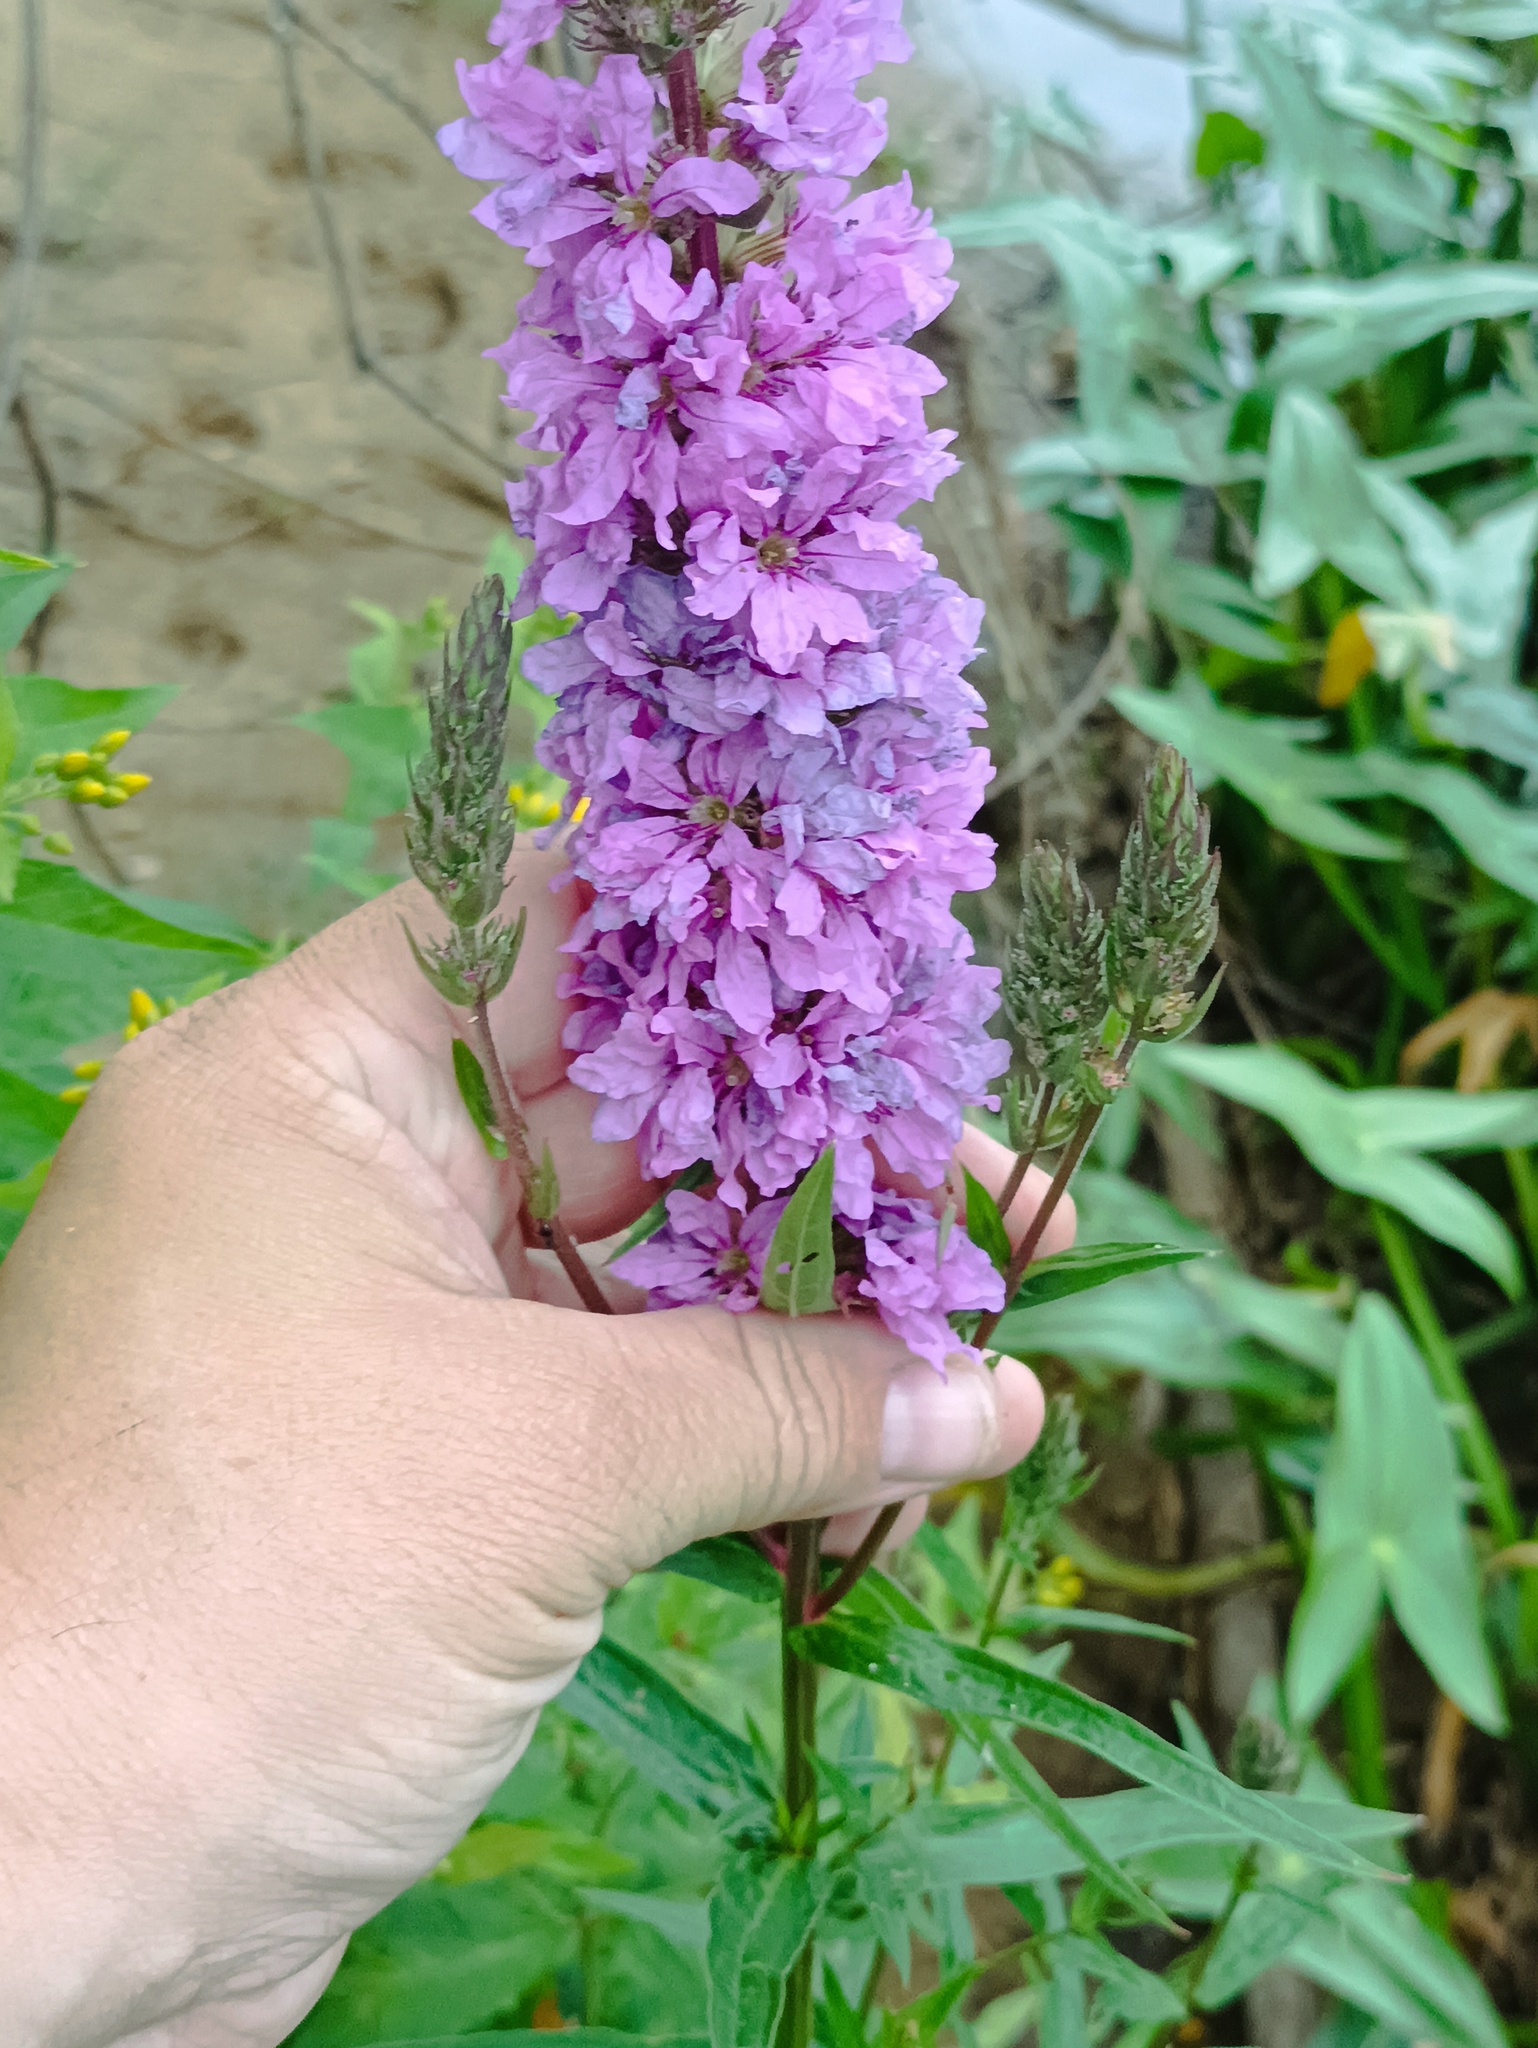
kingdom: Plantae
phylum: Tracheophyta
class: Magnoliopsida
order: Myrtales
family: Lythraceae
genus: Lythrum
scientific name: Lythrum salicaria
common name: Purple loosestrife
